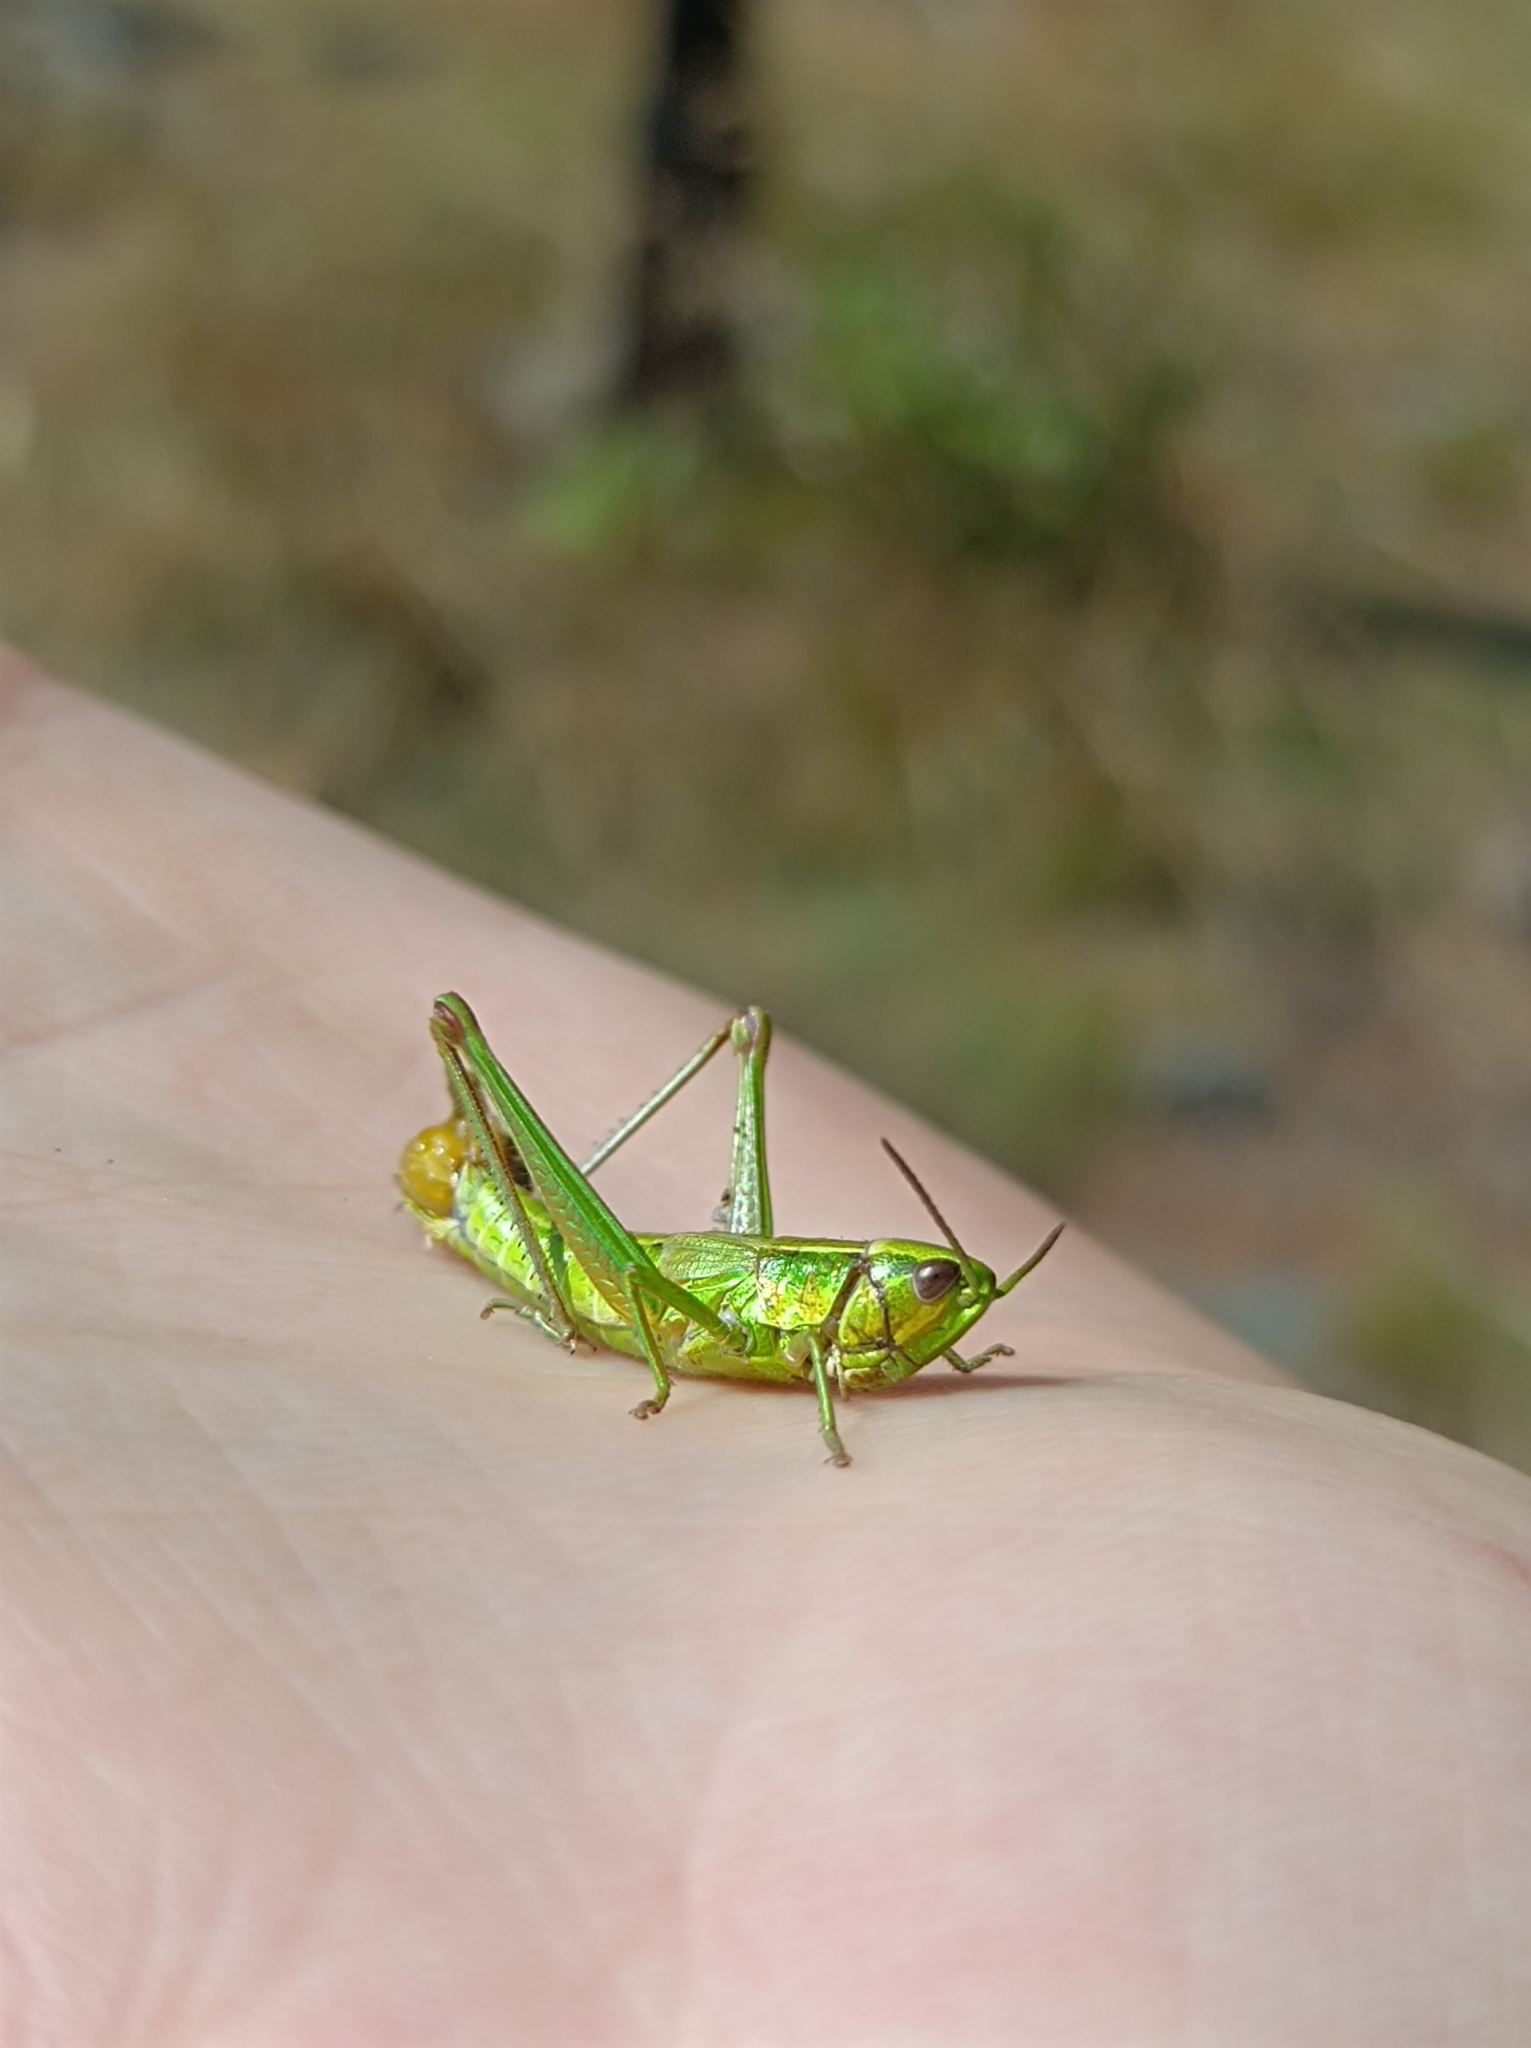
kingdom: Animalia
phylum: Arthropoda
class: Insecta
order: Orthoptera
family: Acrididae
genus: Euthystira
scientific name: Euthystira brachyptera
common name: Small gold grasshopper
